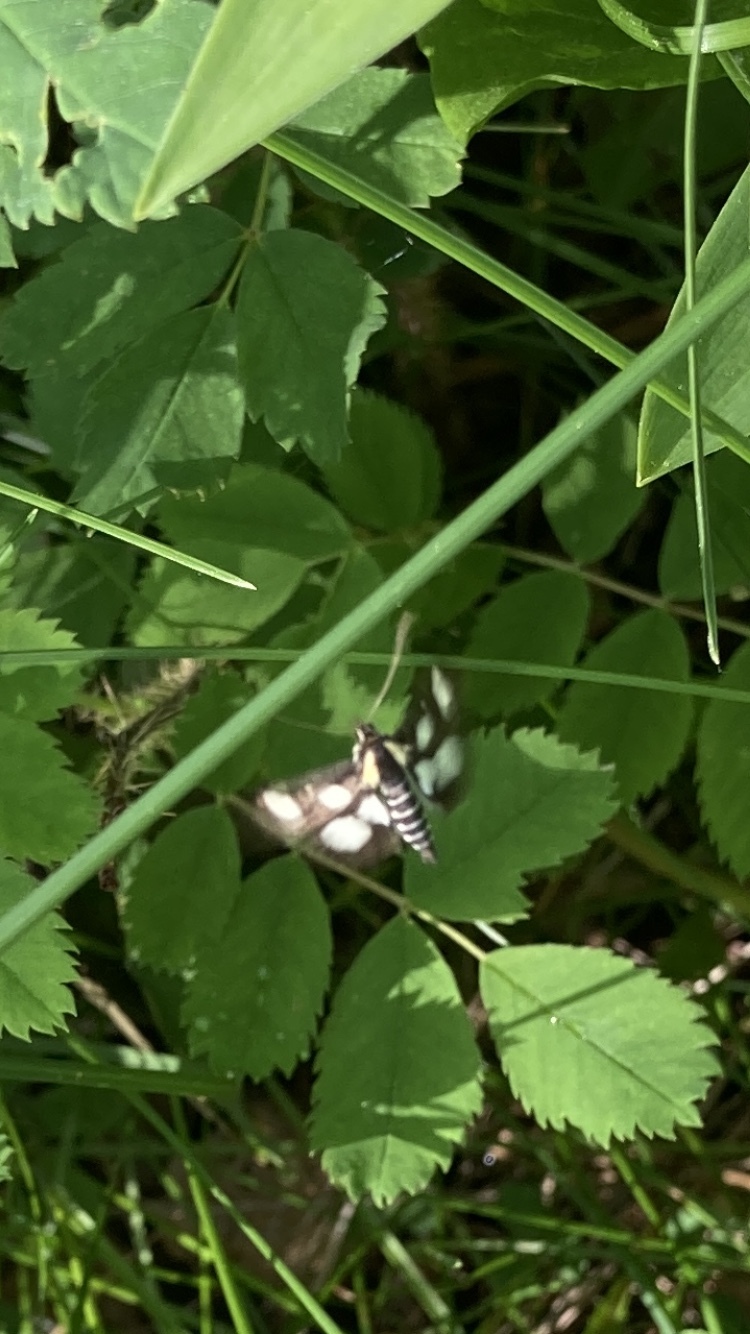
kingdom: Animalia
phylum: Arthropoda
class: Insecta
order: Lepidoptera
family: Crambidae
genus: Anania
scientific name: Anania funebris
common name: White-spotted sable moth
